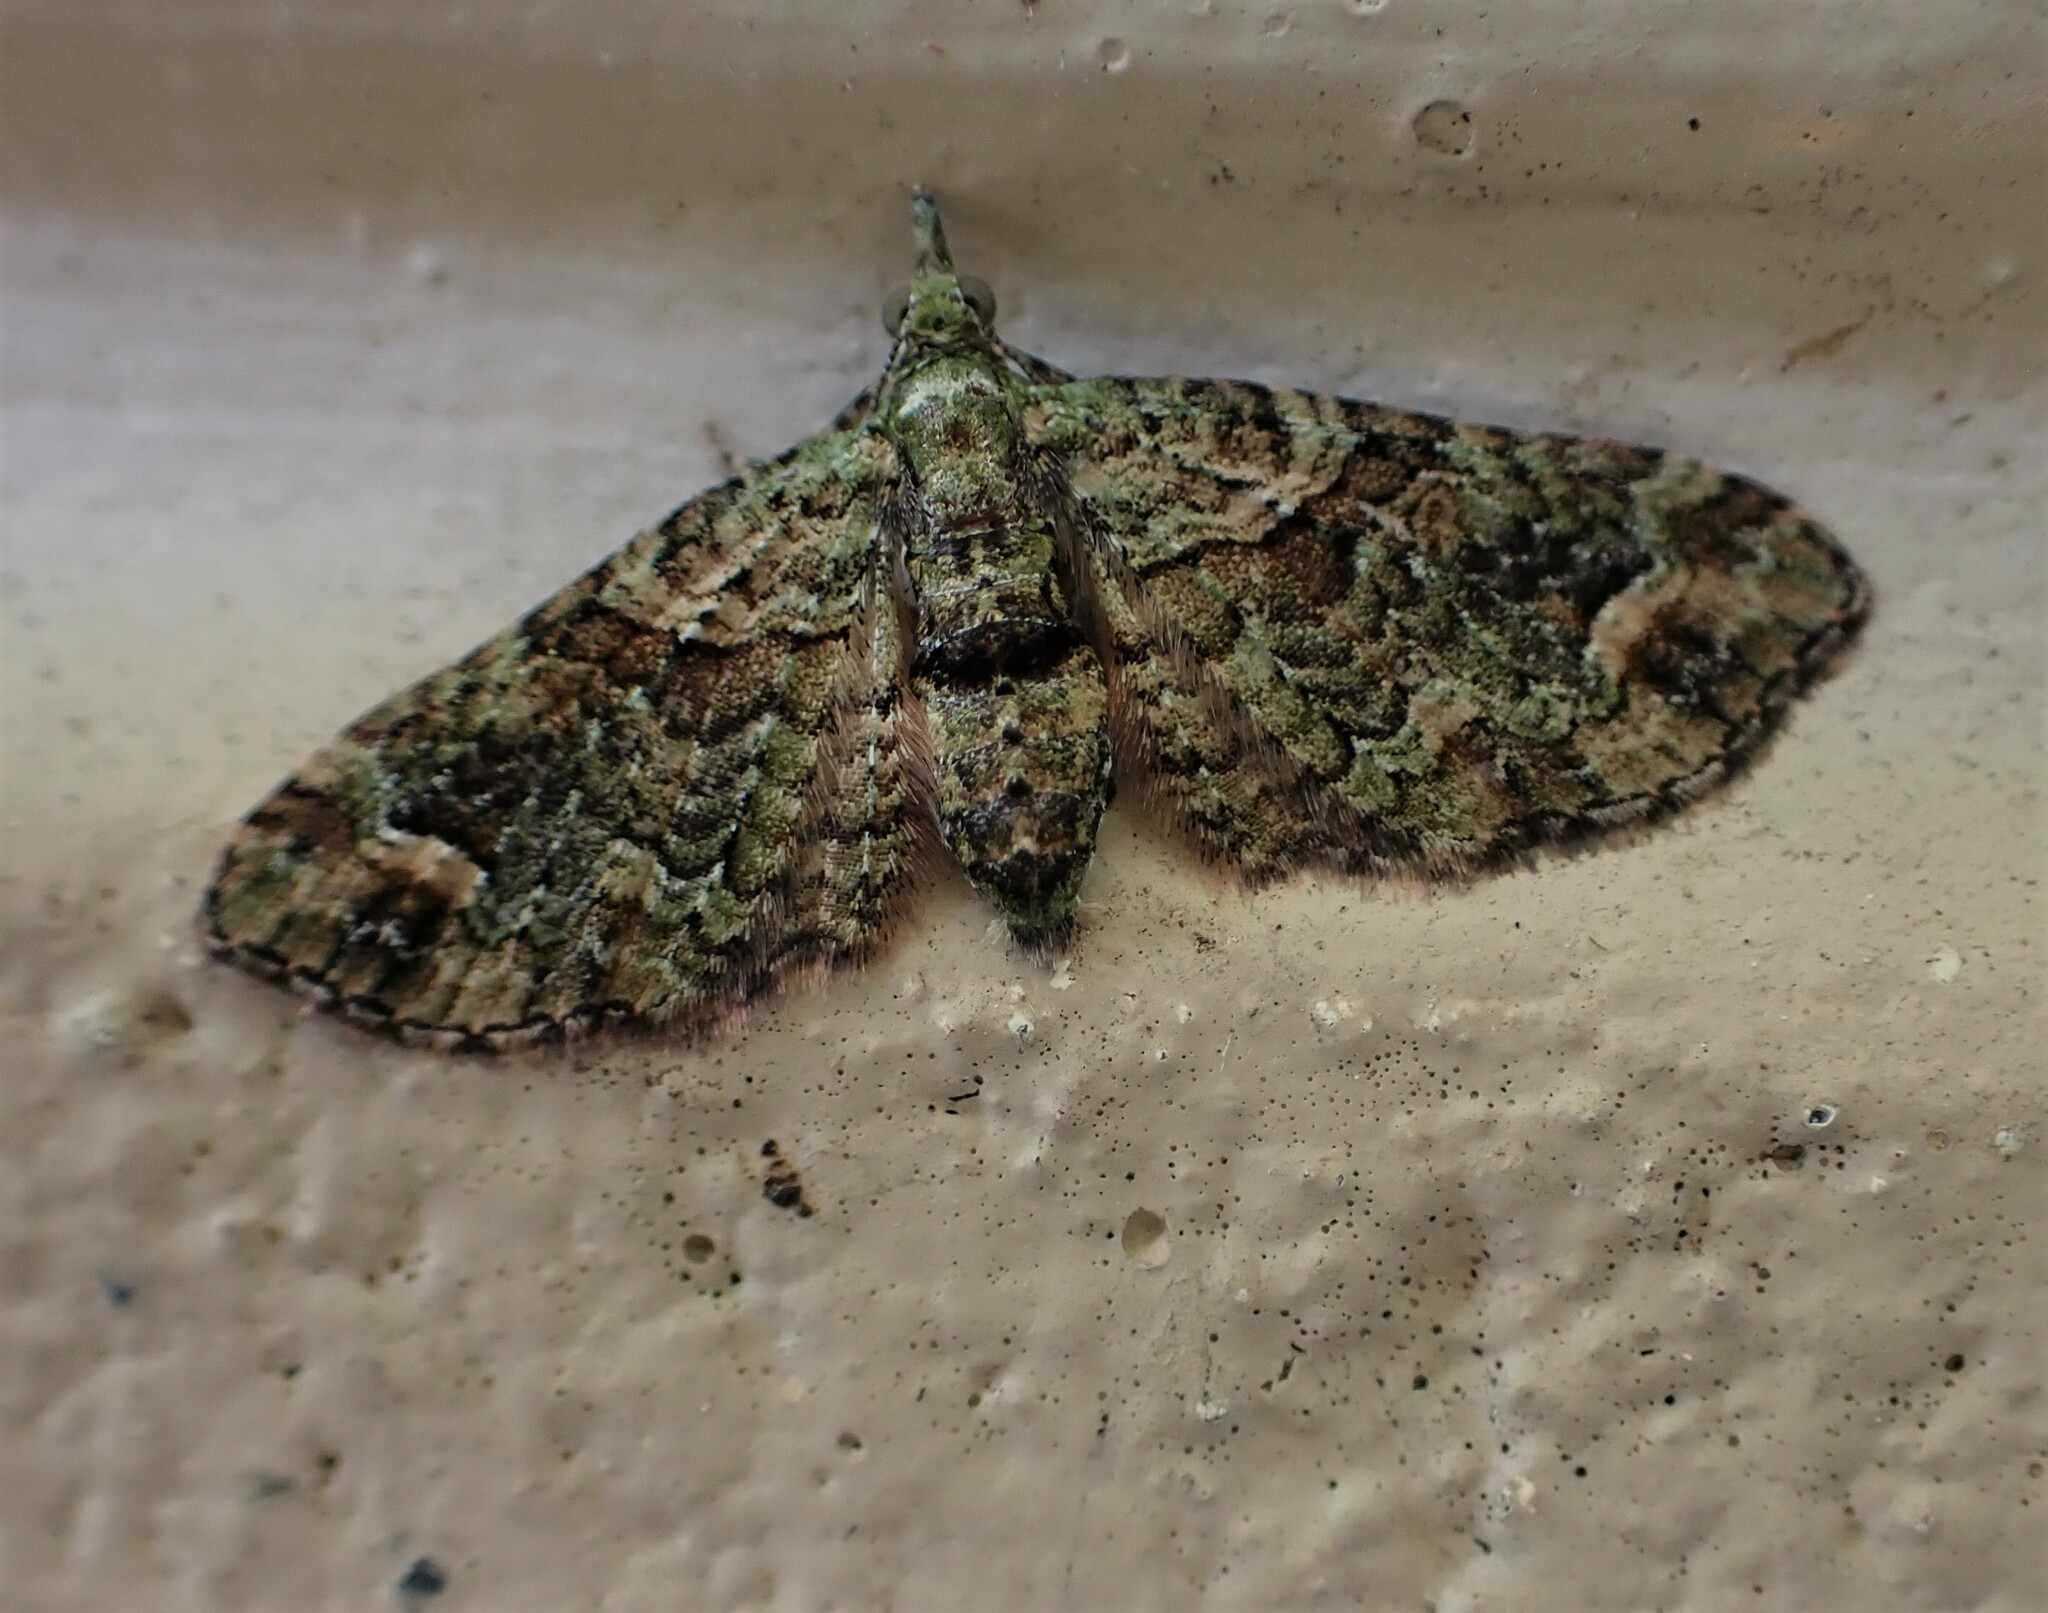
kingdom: Animalia
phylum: Arthropoda
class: Insecta
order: Lepidoptera
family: Geometridae
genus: Idaea
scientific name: Idaea mutanda
